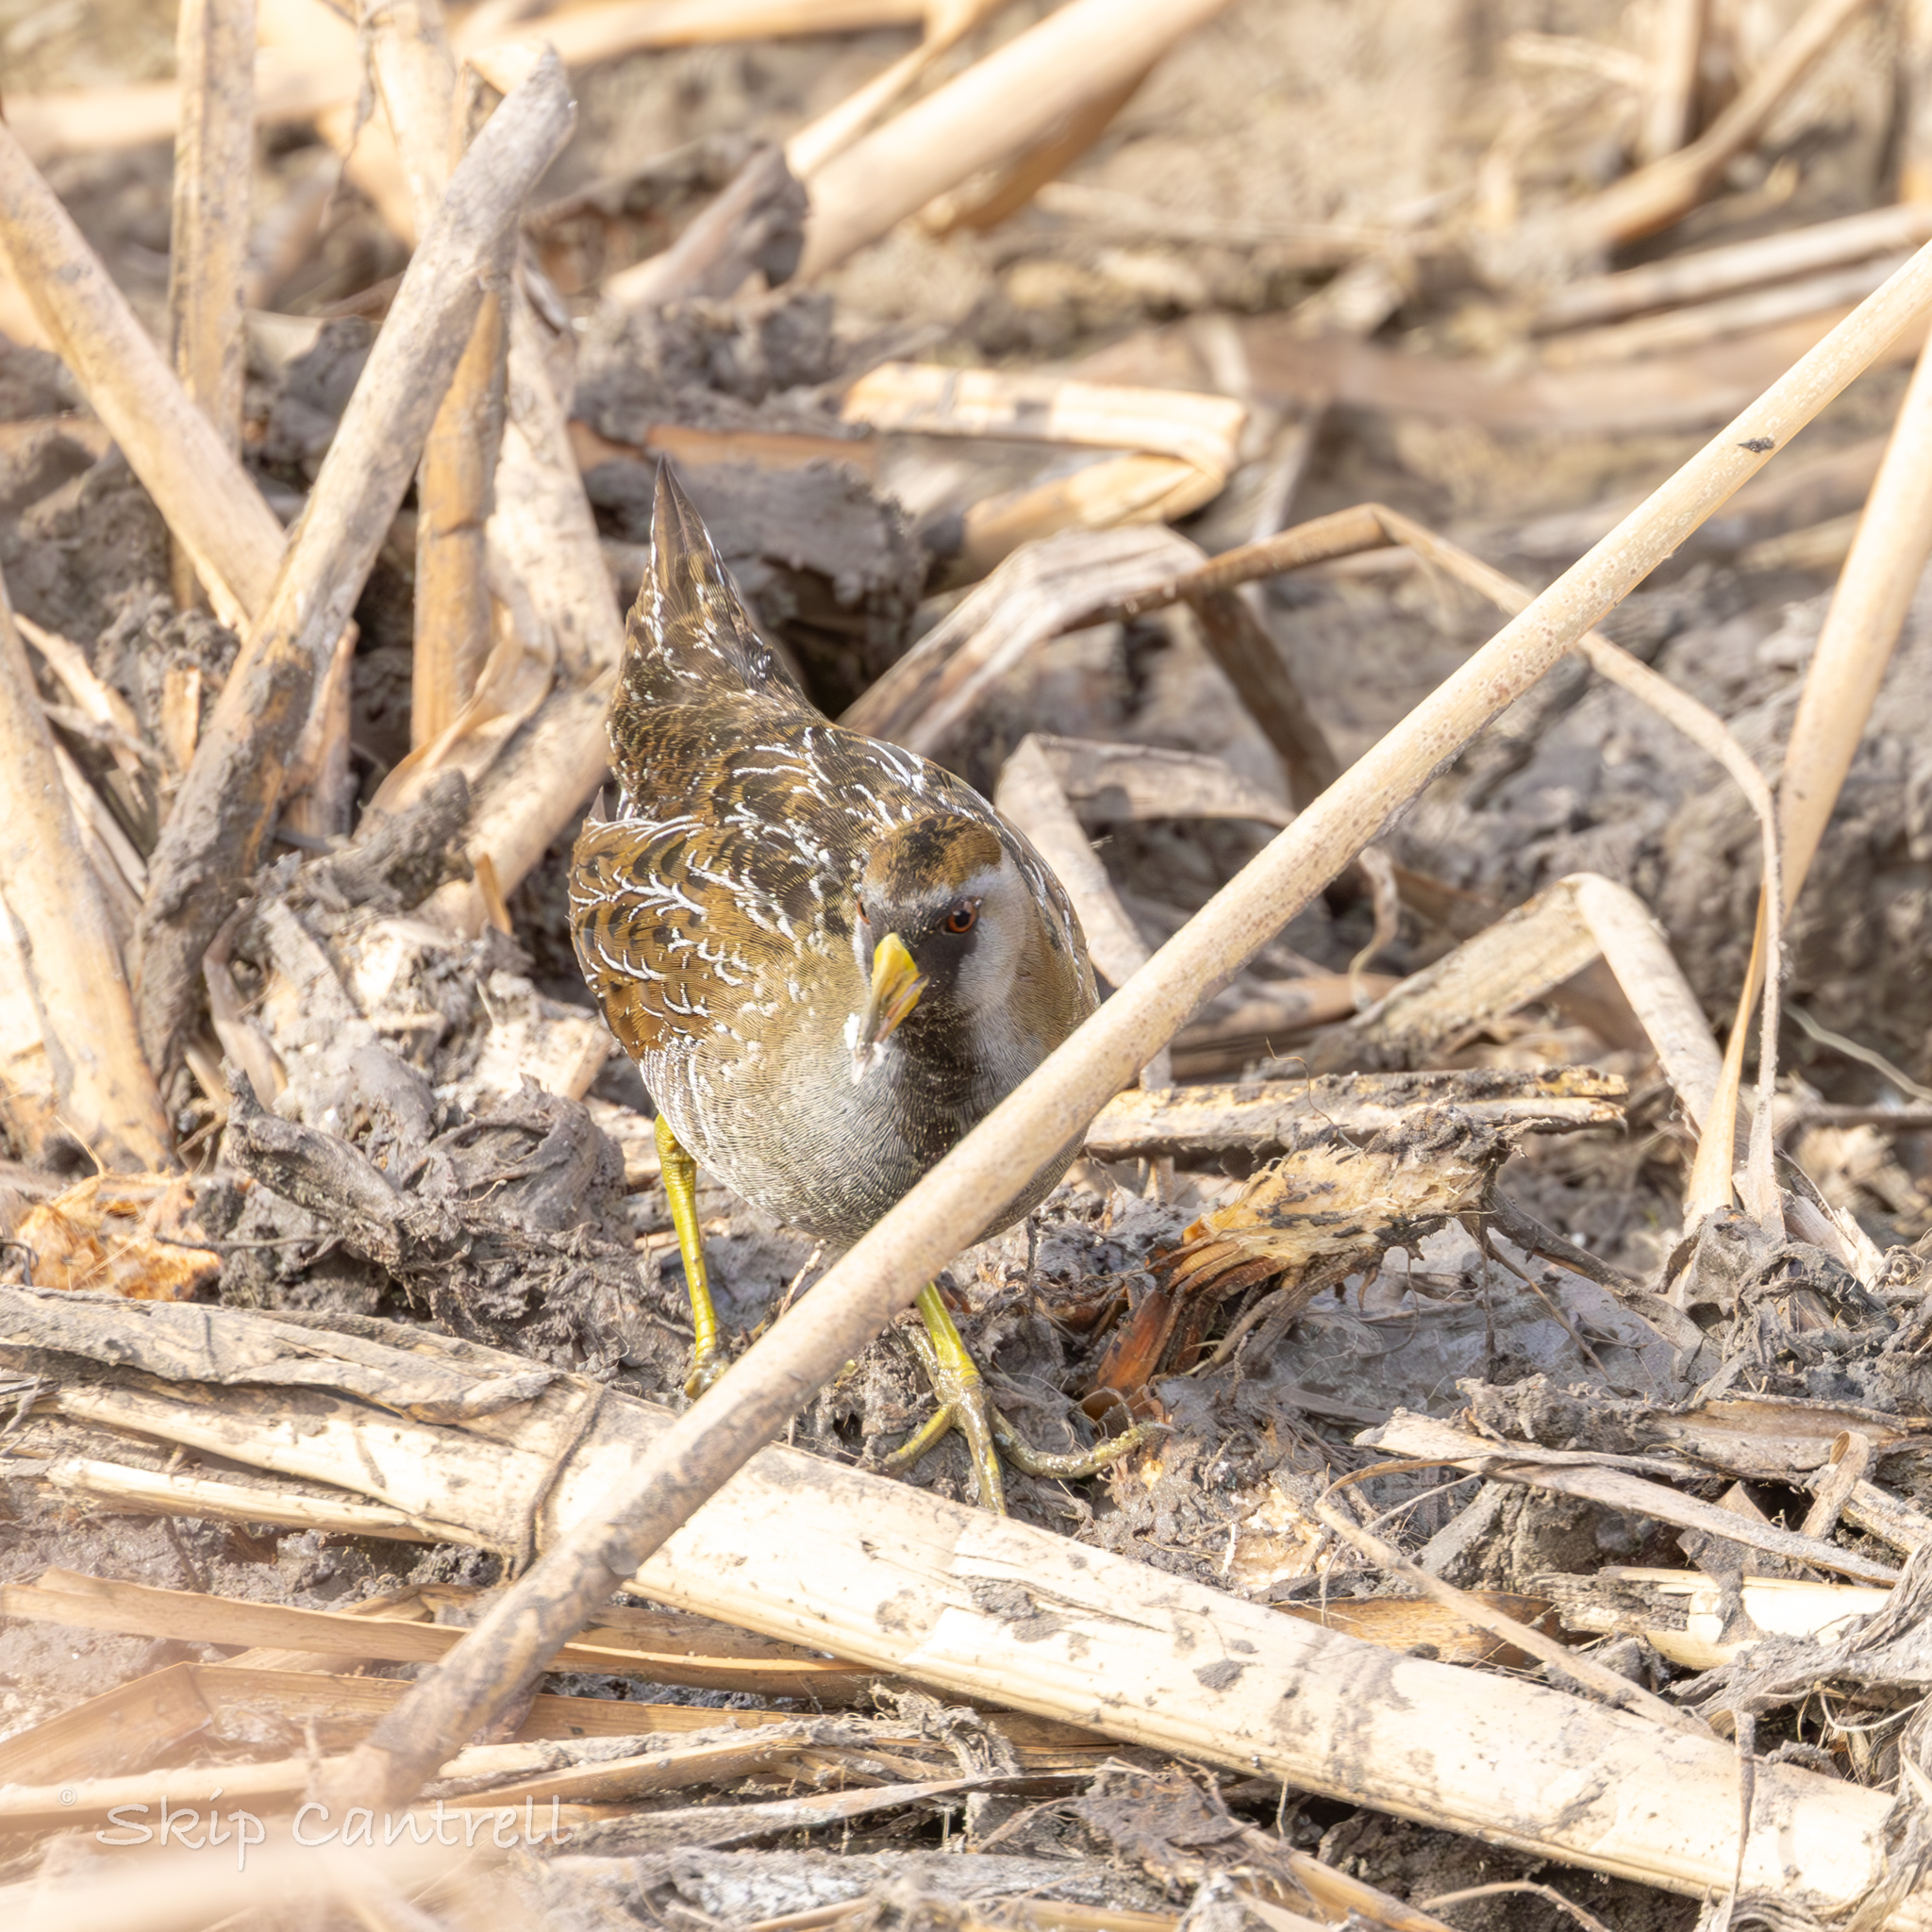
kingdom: Animalia
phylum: Chordata
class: Aves
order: Gruiformes
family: Rallidae
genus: Porzana
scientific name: Porzana carolina
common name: Sora
